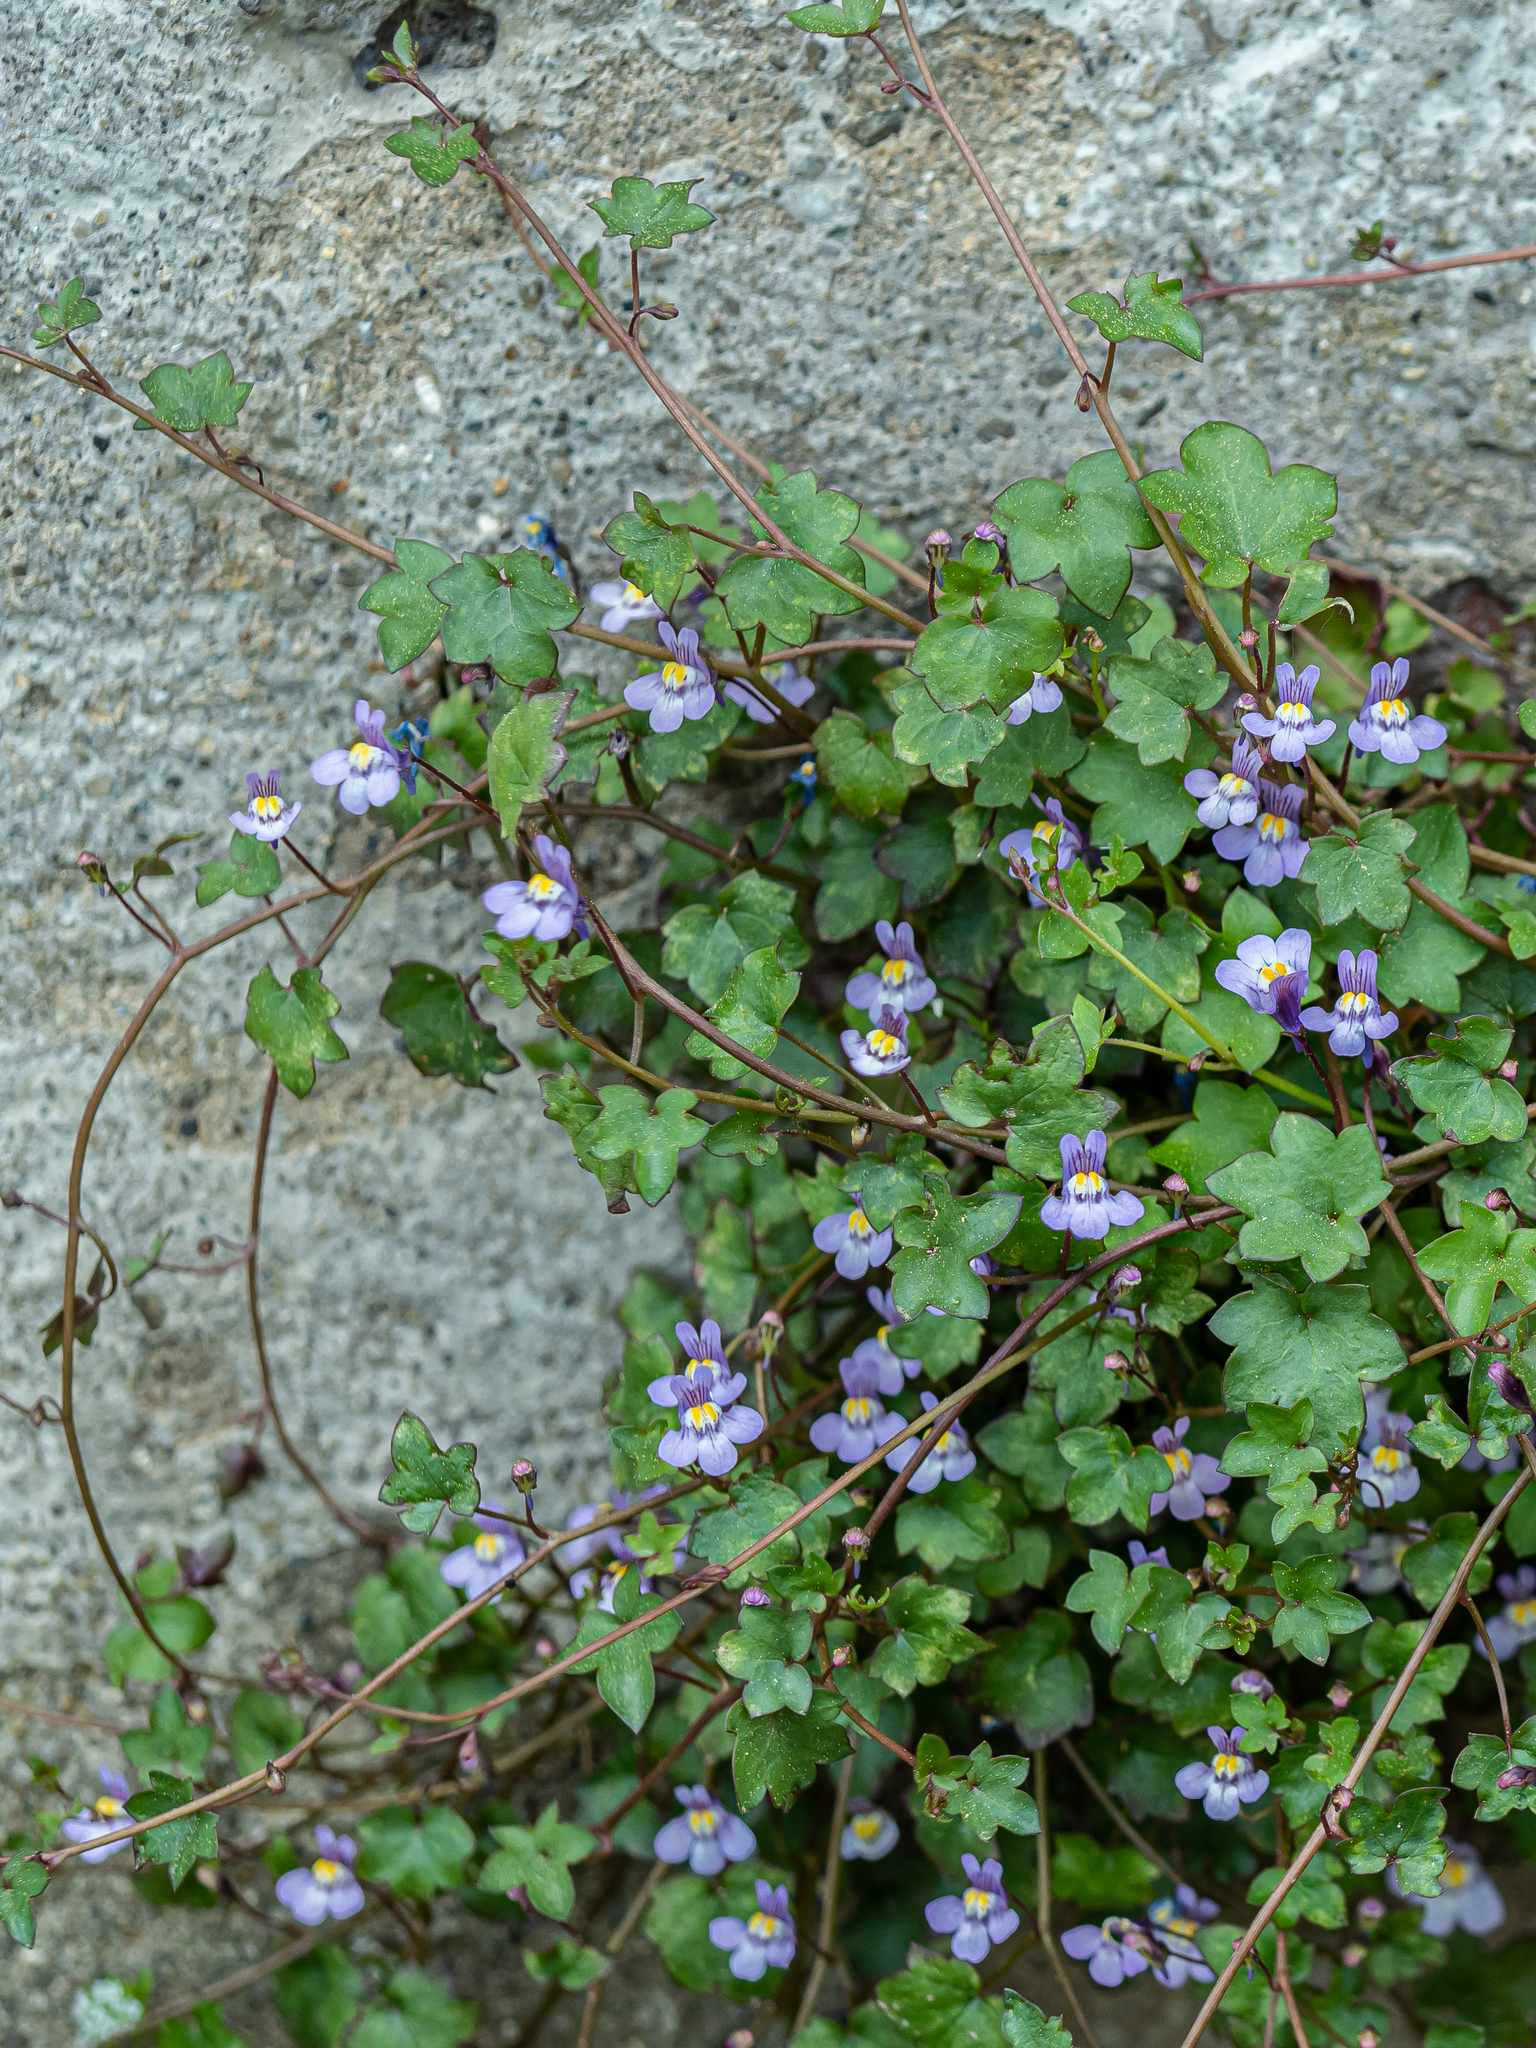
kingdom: Plantae
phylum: Tracheophyta
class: Magnoliopsida
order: Lamiales
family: Plantaginaceae
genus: Cymbalaria
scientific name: Cymbalaria muralis
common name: Ivy-leaved toadflax
